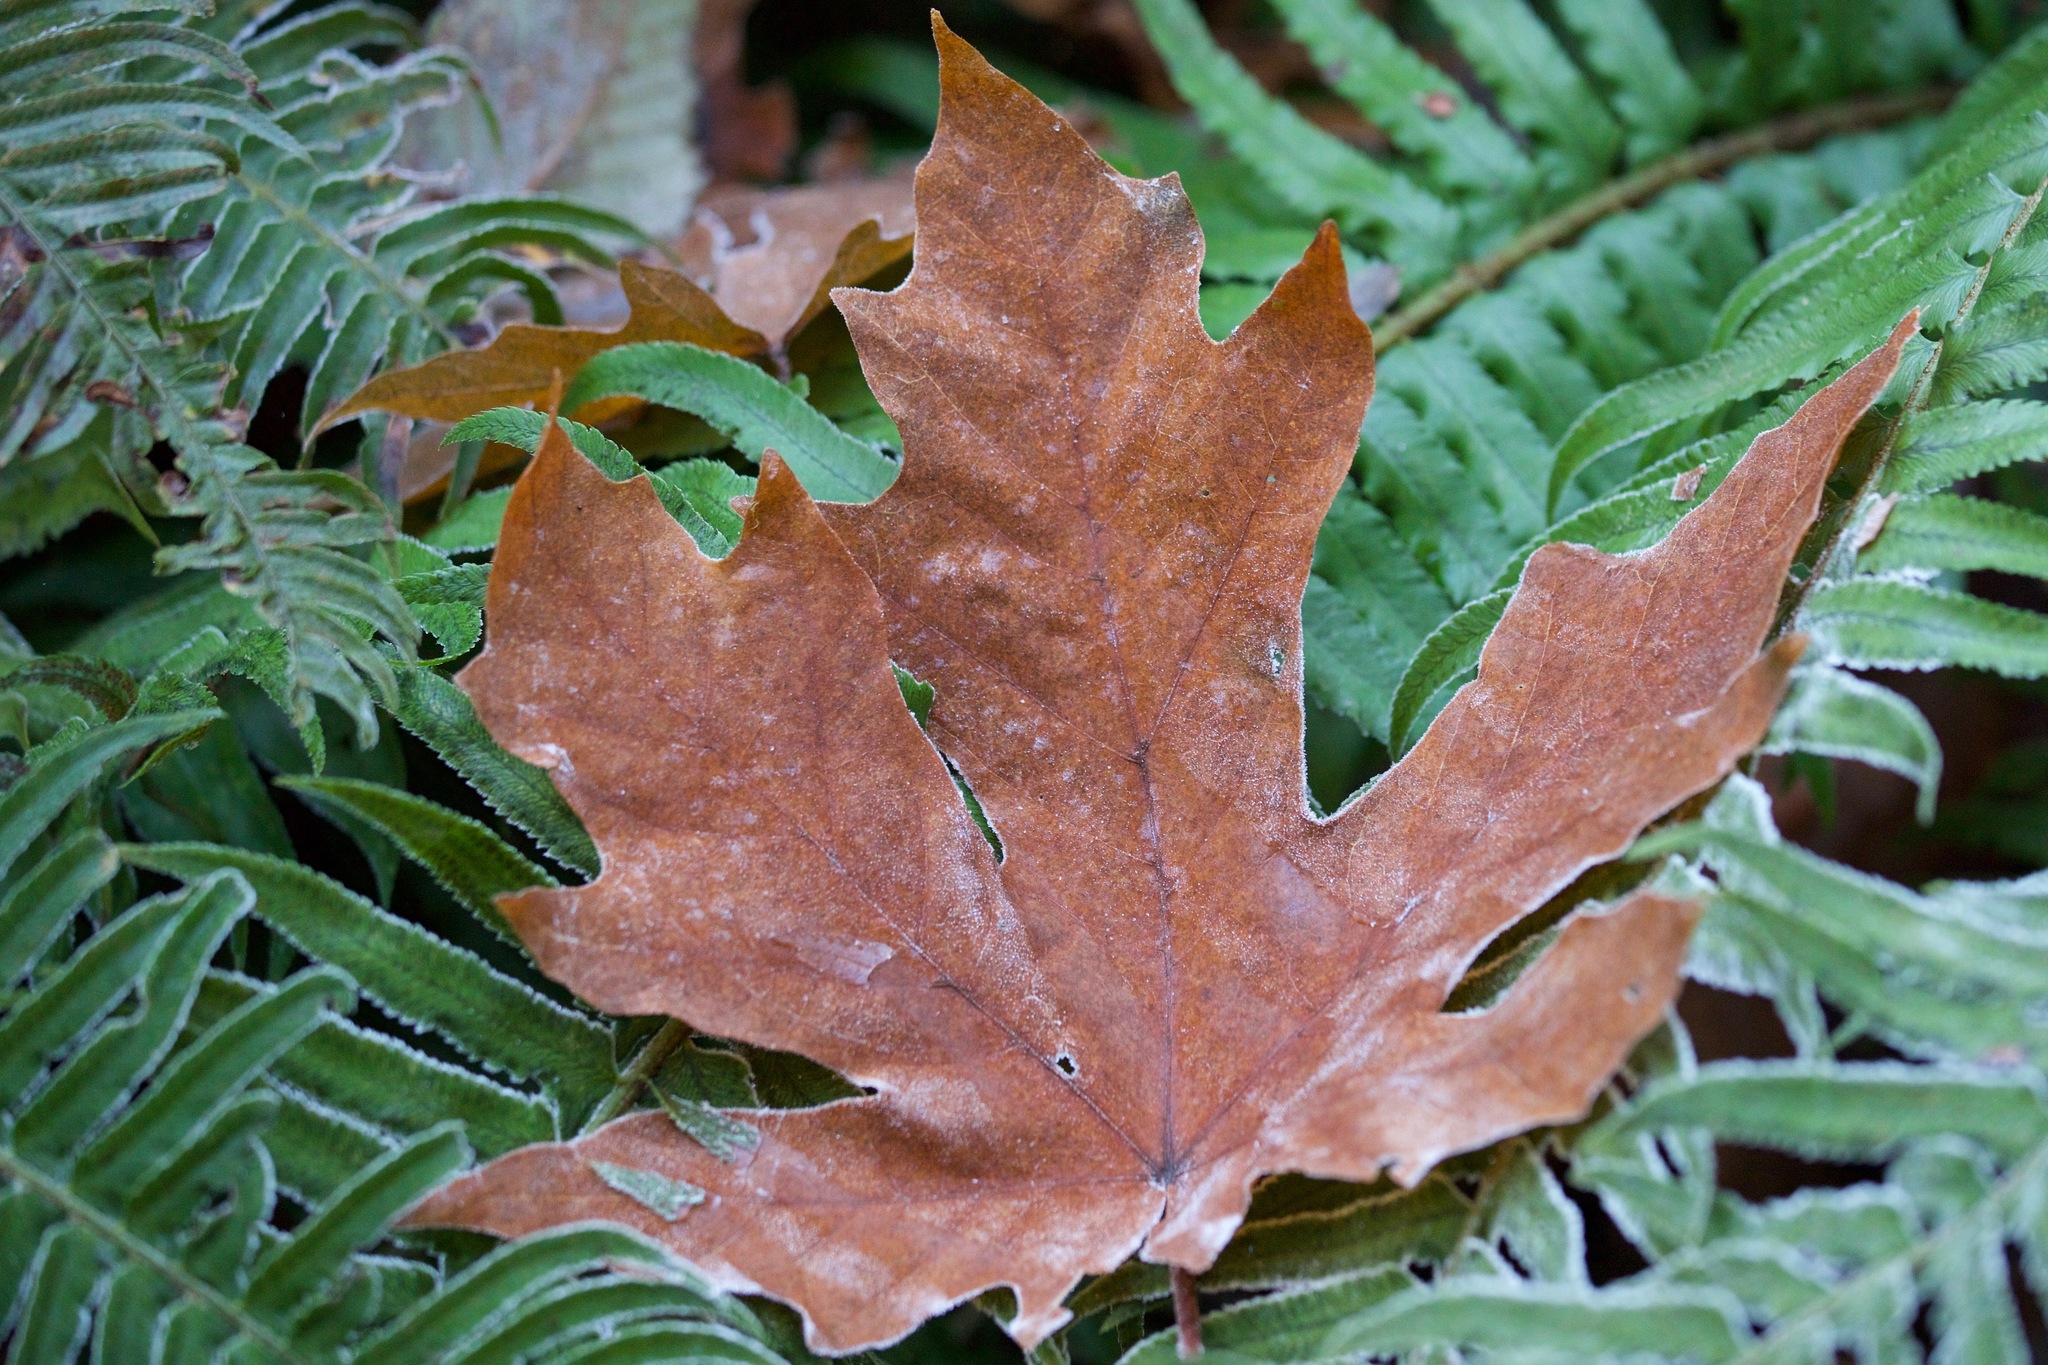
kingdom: Plantae
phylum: Tracheophyta
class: Magnoliopsida
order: Sapindales
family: Sapindaceae
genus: Acer
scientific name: Acer macrophyllum
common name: Oregon maple
